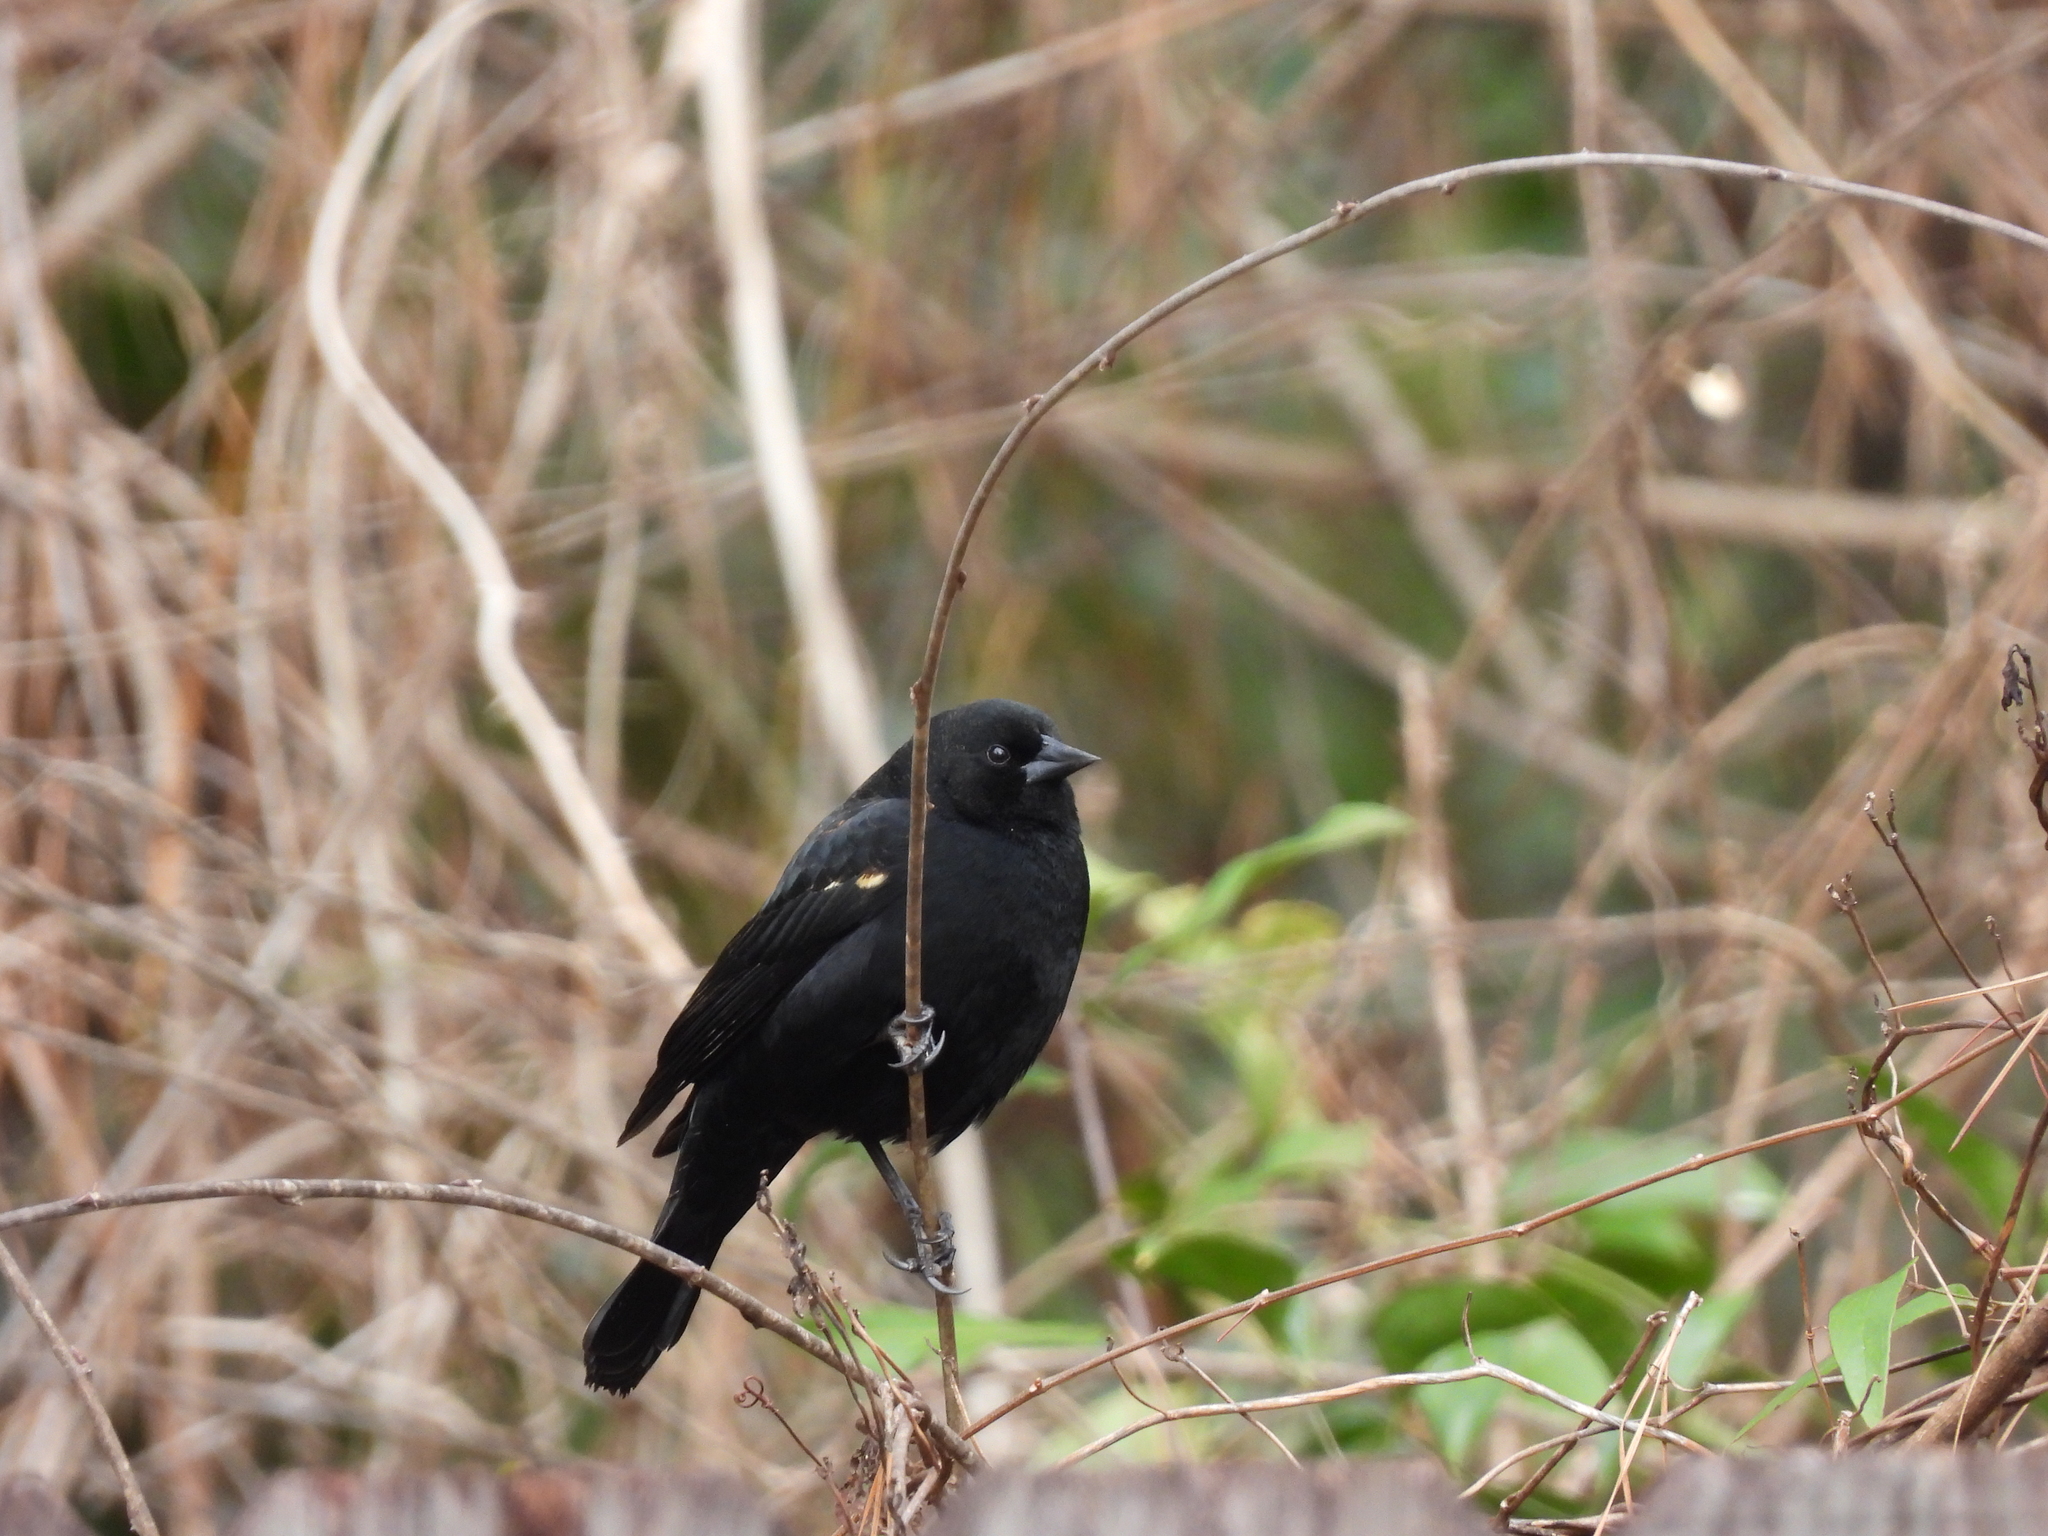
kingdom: Animalia
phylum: Chordata
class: Aves
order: Passeriformes
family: Icteridae
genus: Agelaius
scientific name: Agelaius phoeniceus
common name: Red-winged blackbird
